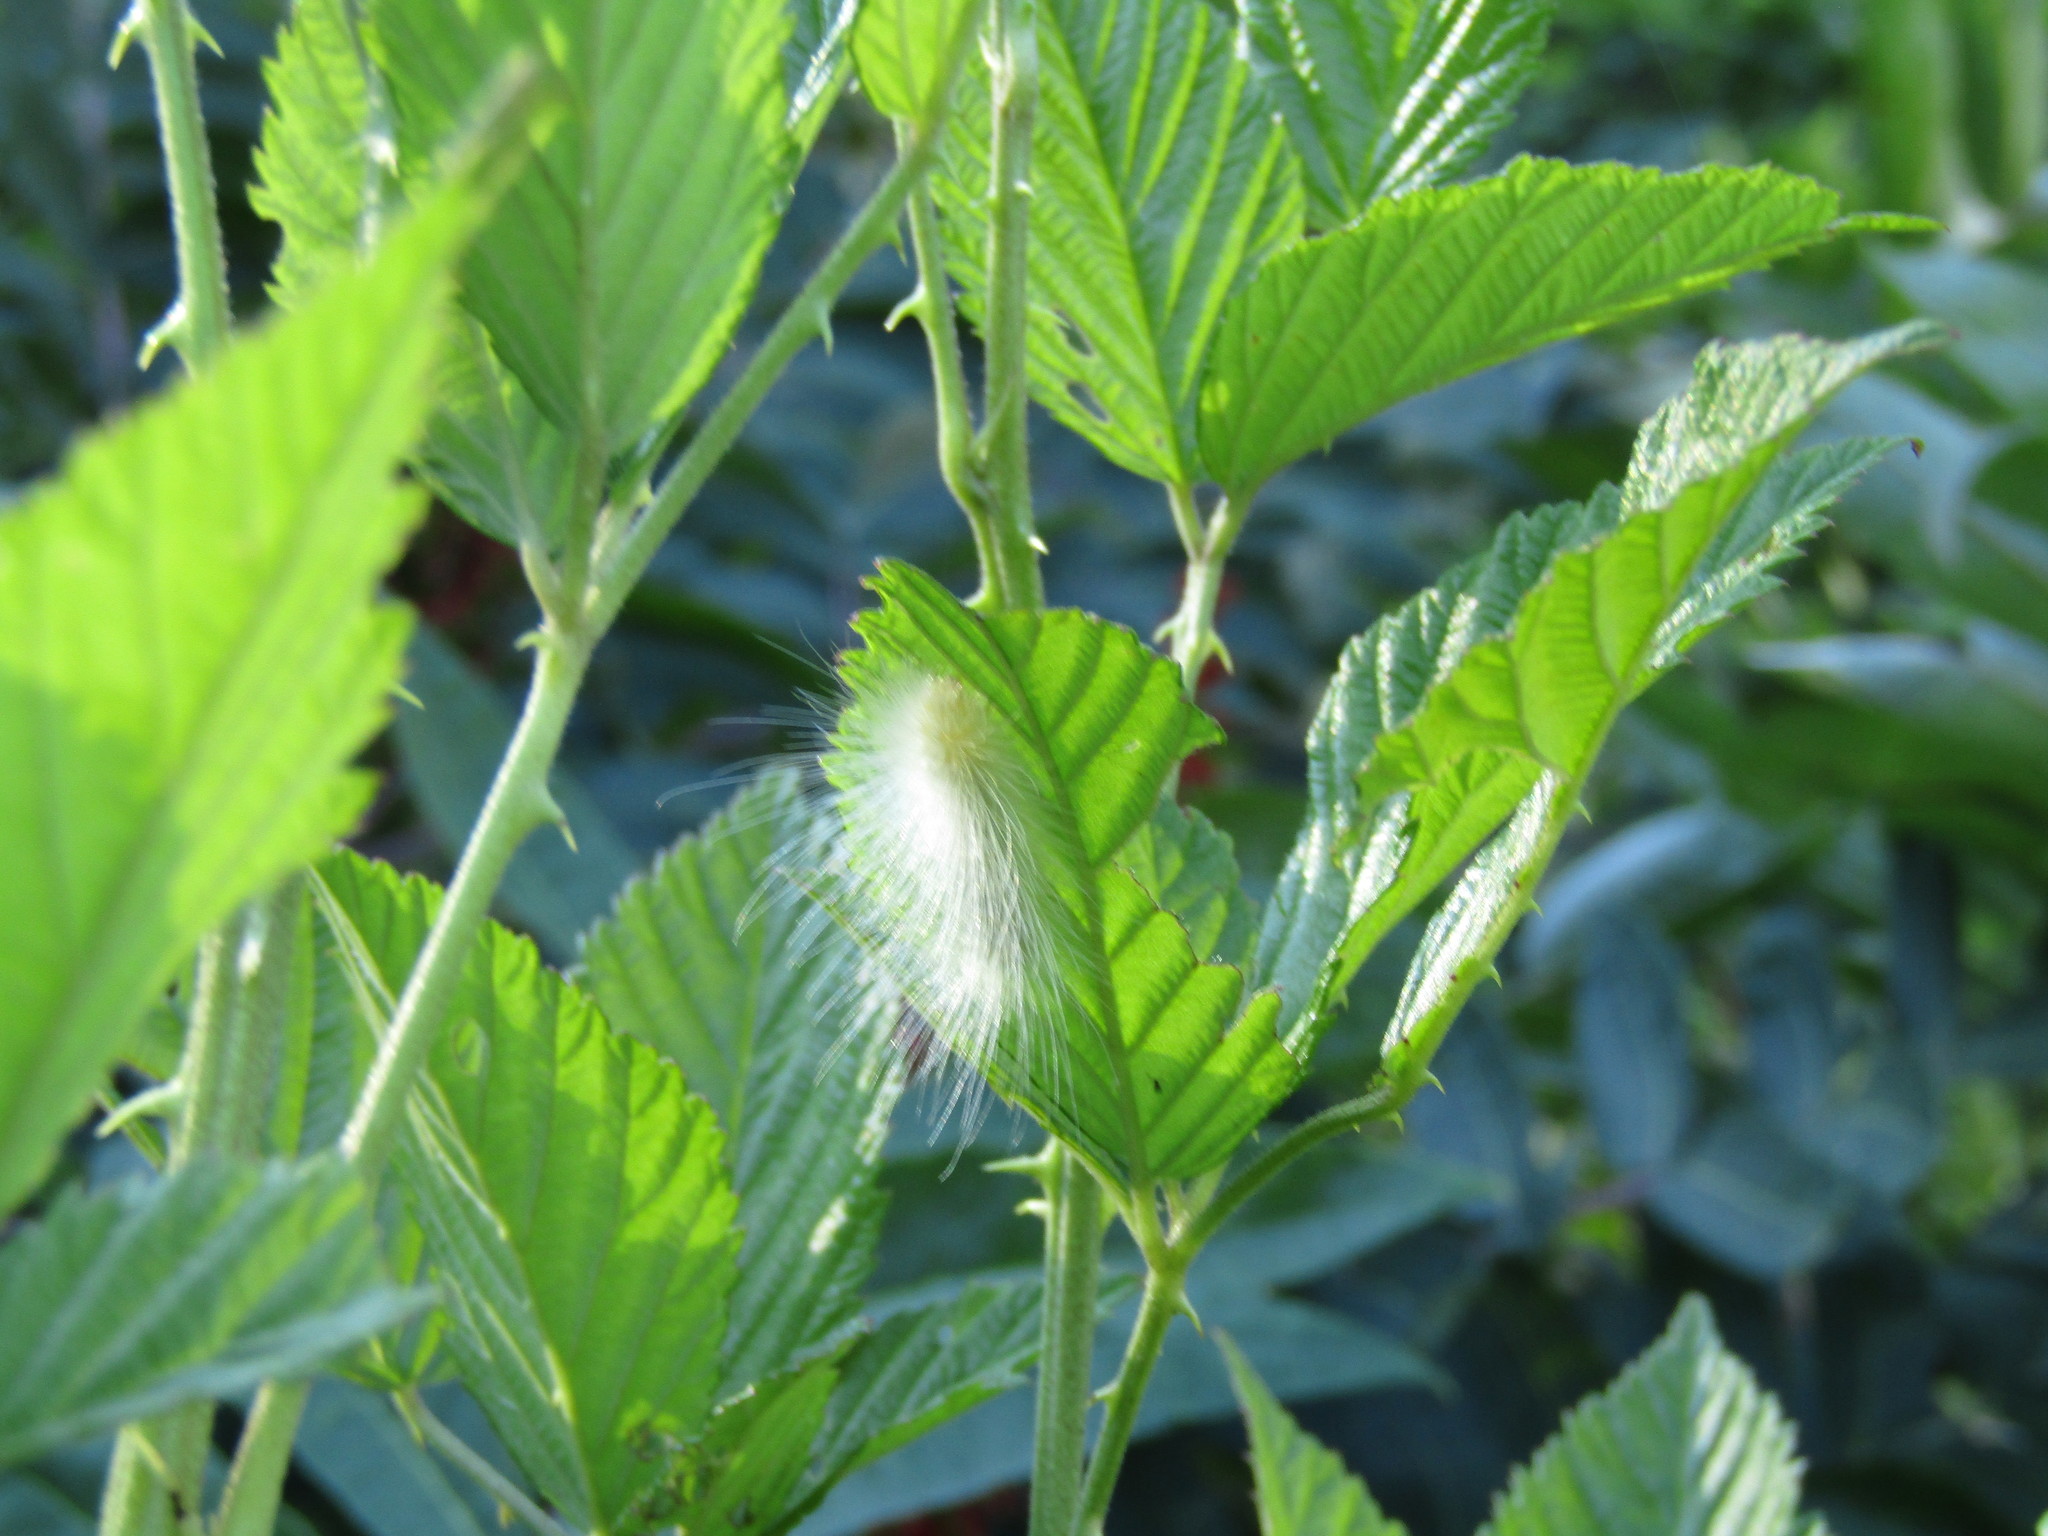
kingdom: Animalia
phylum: Arthropoda
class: Insecta
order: Lepidoptera
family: Erebidae
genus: Spilosoma
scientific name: Spilosoma virginica
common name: Virginia tiger moth
